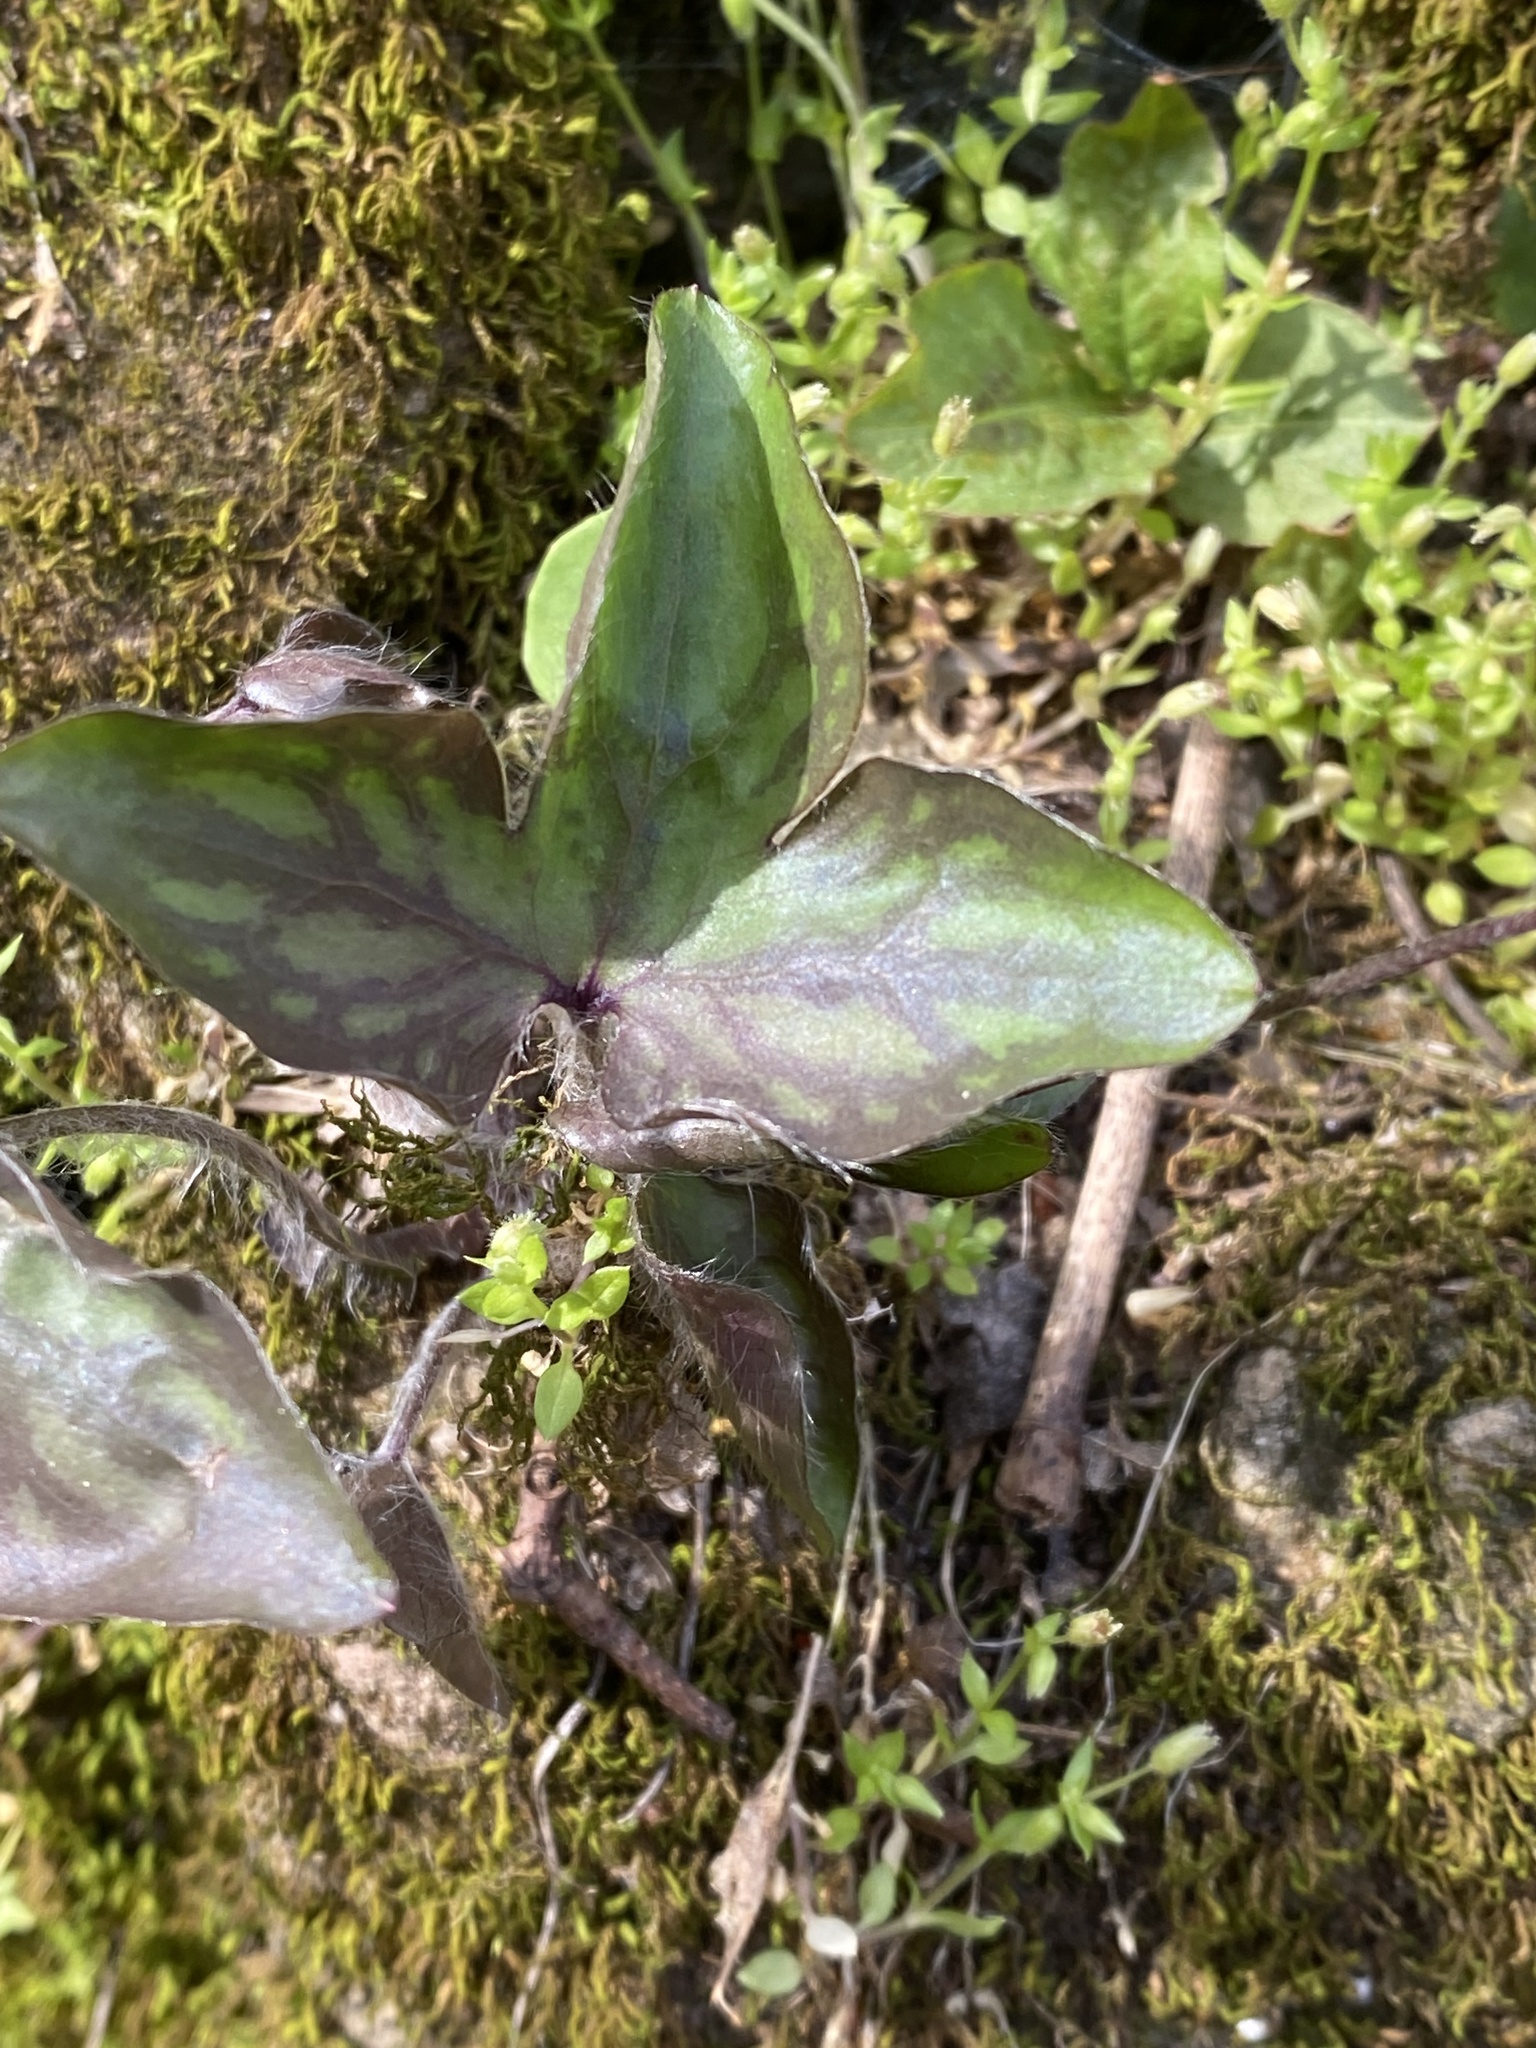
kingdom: Plantae
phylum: Tracheophyta
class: Magnoliopsida
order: Ranunculales
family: Ranunculaceae
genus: Hepatica
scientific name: Hepatica acutiloba
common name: Sharp-lobed hepatica
